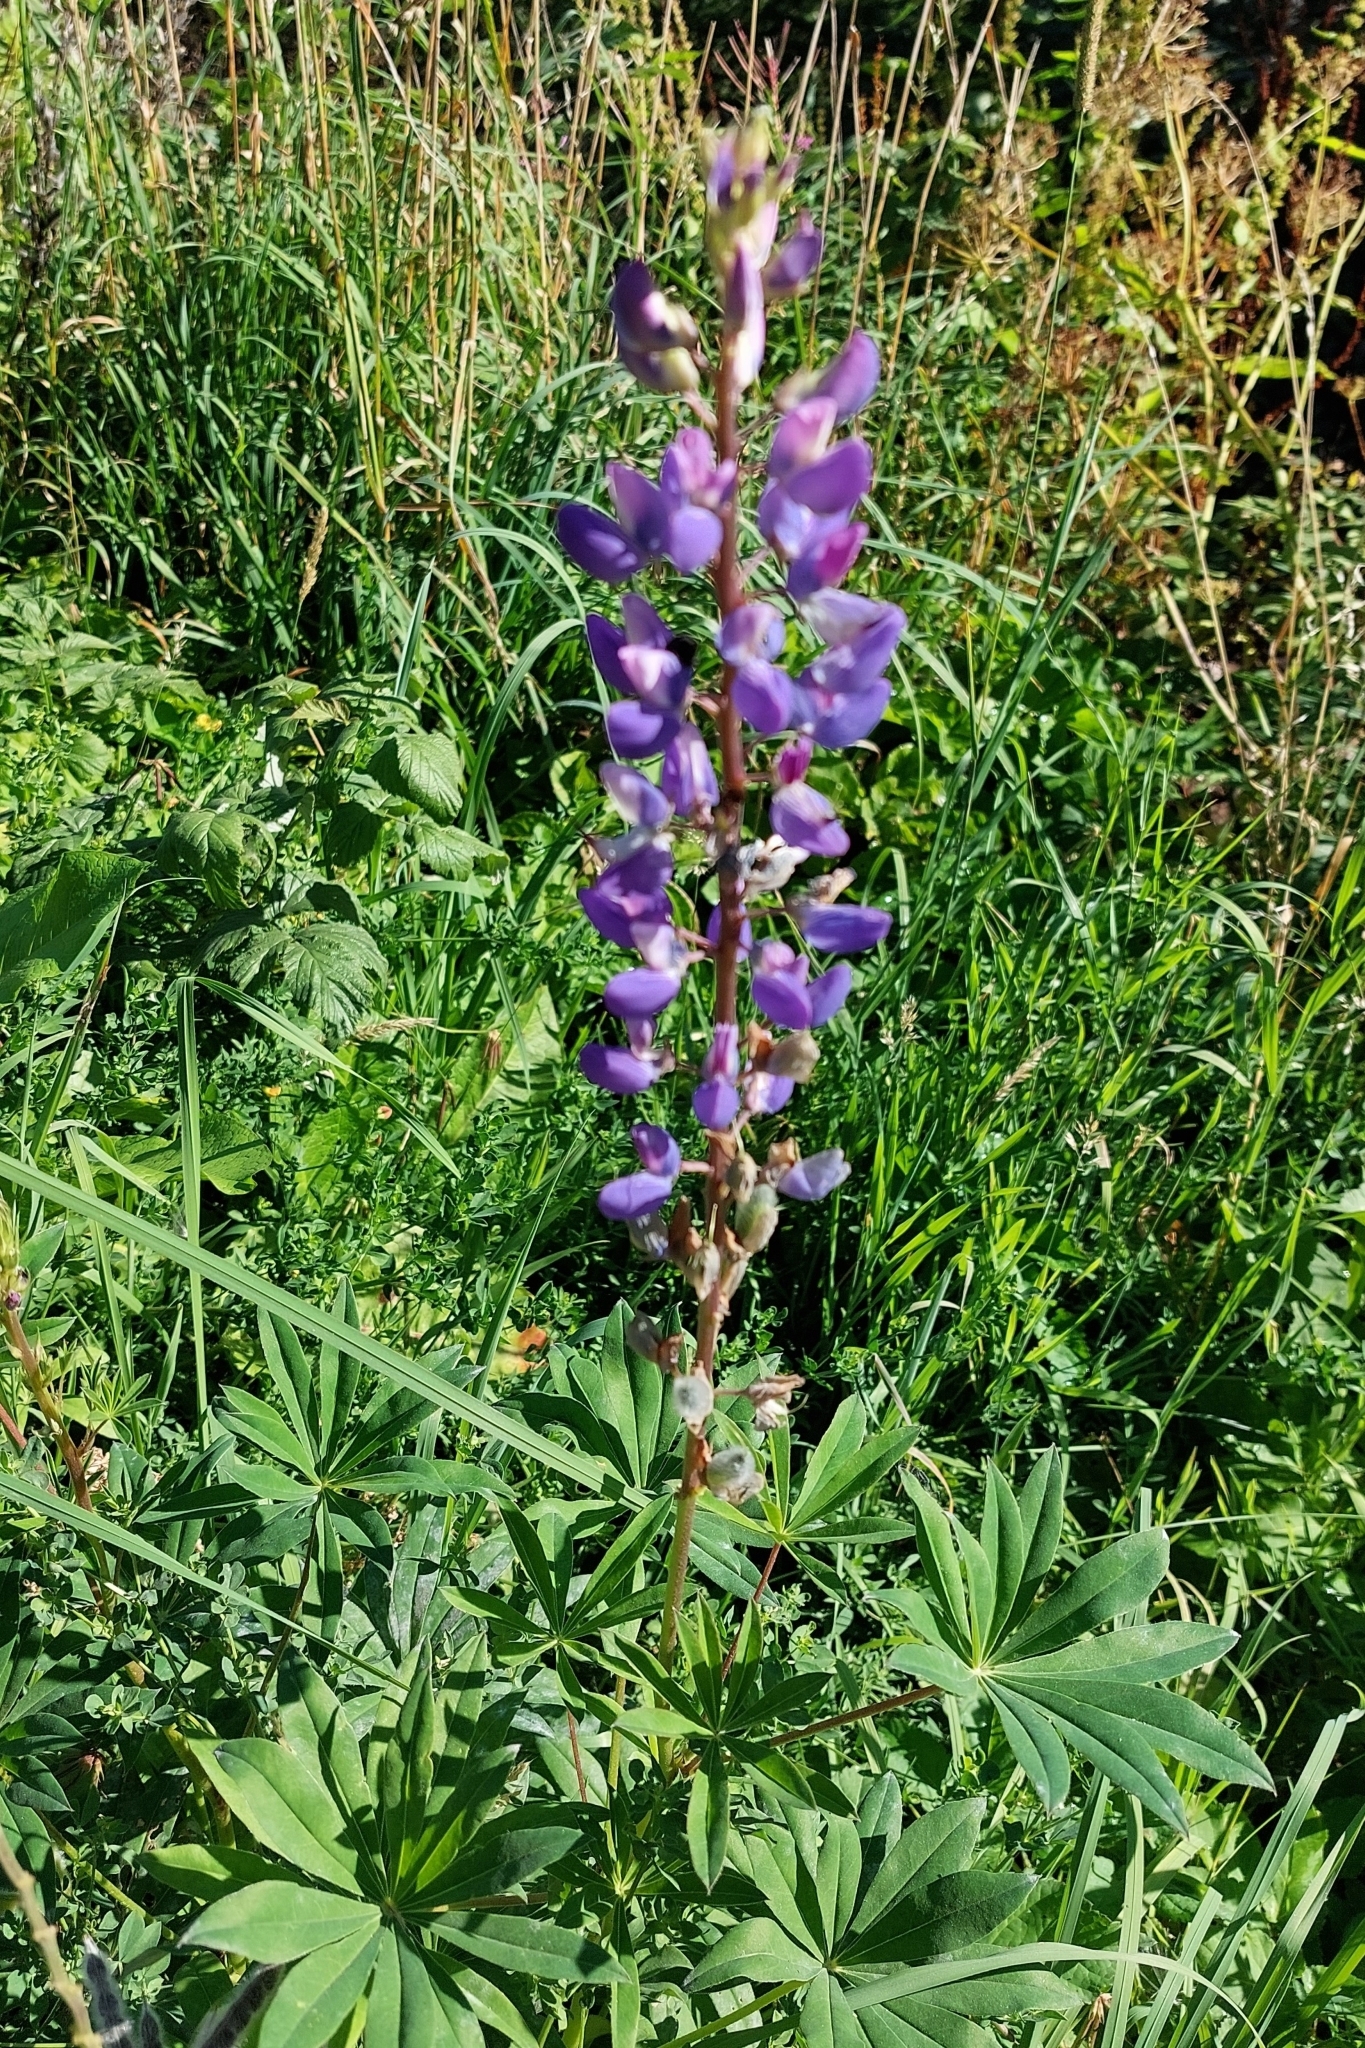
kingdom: Plantae
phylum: Tracheophyta
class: Magnoliopsida
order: Fabales
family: Fabaceae
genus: Lupinus
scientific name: Lupinus polyphyllus
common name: Garden lupin
